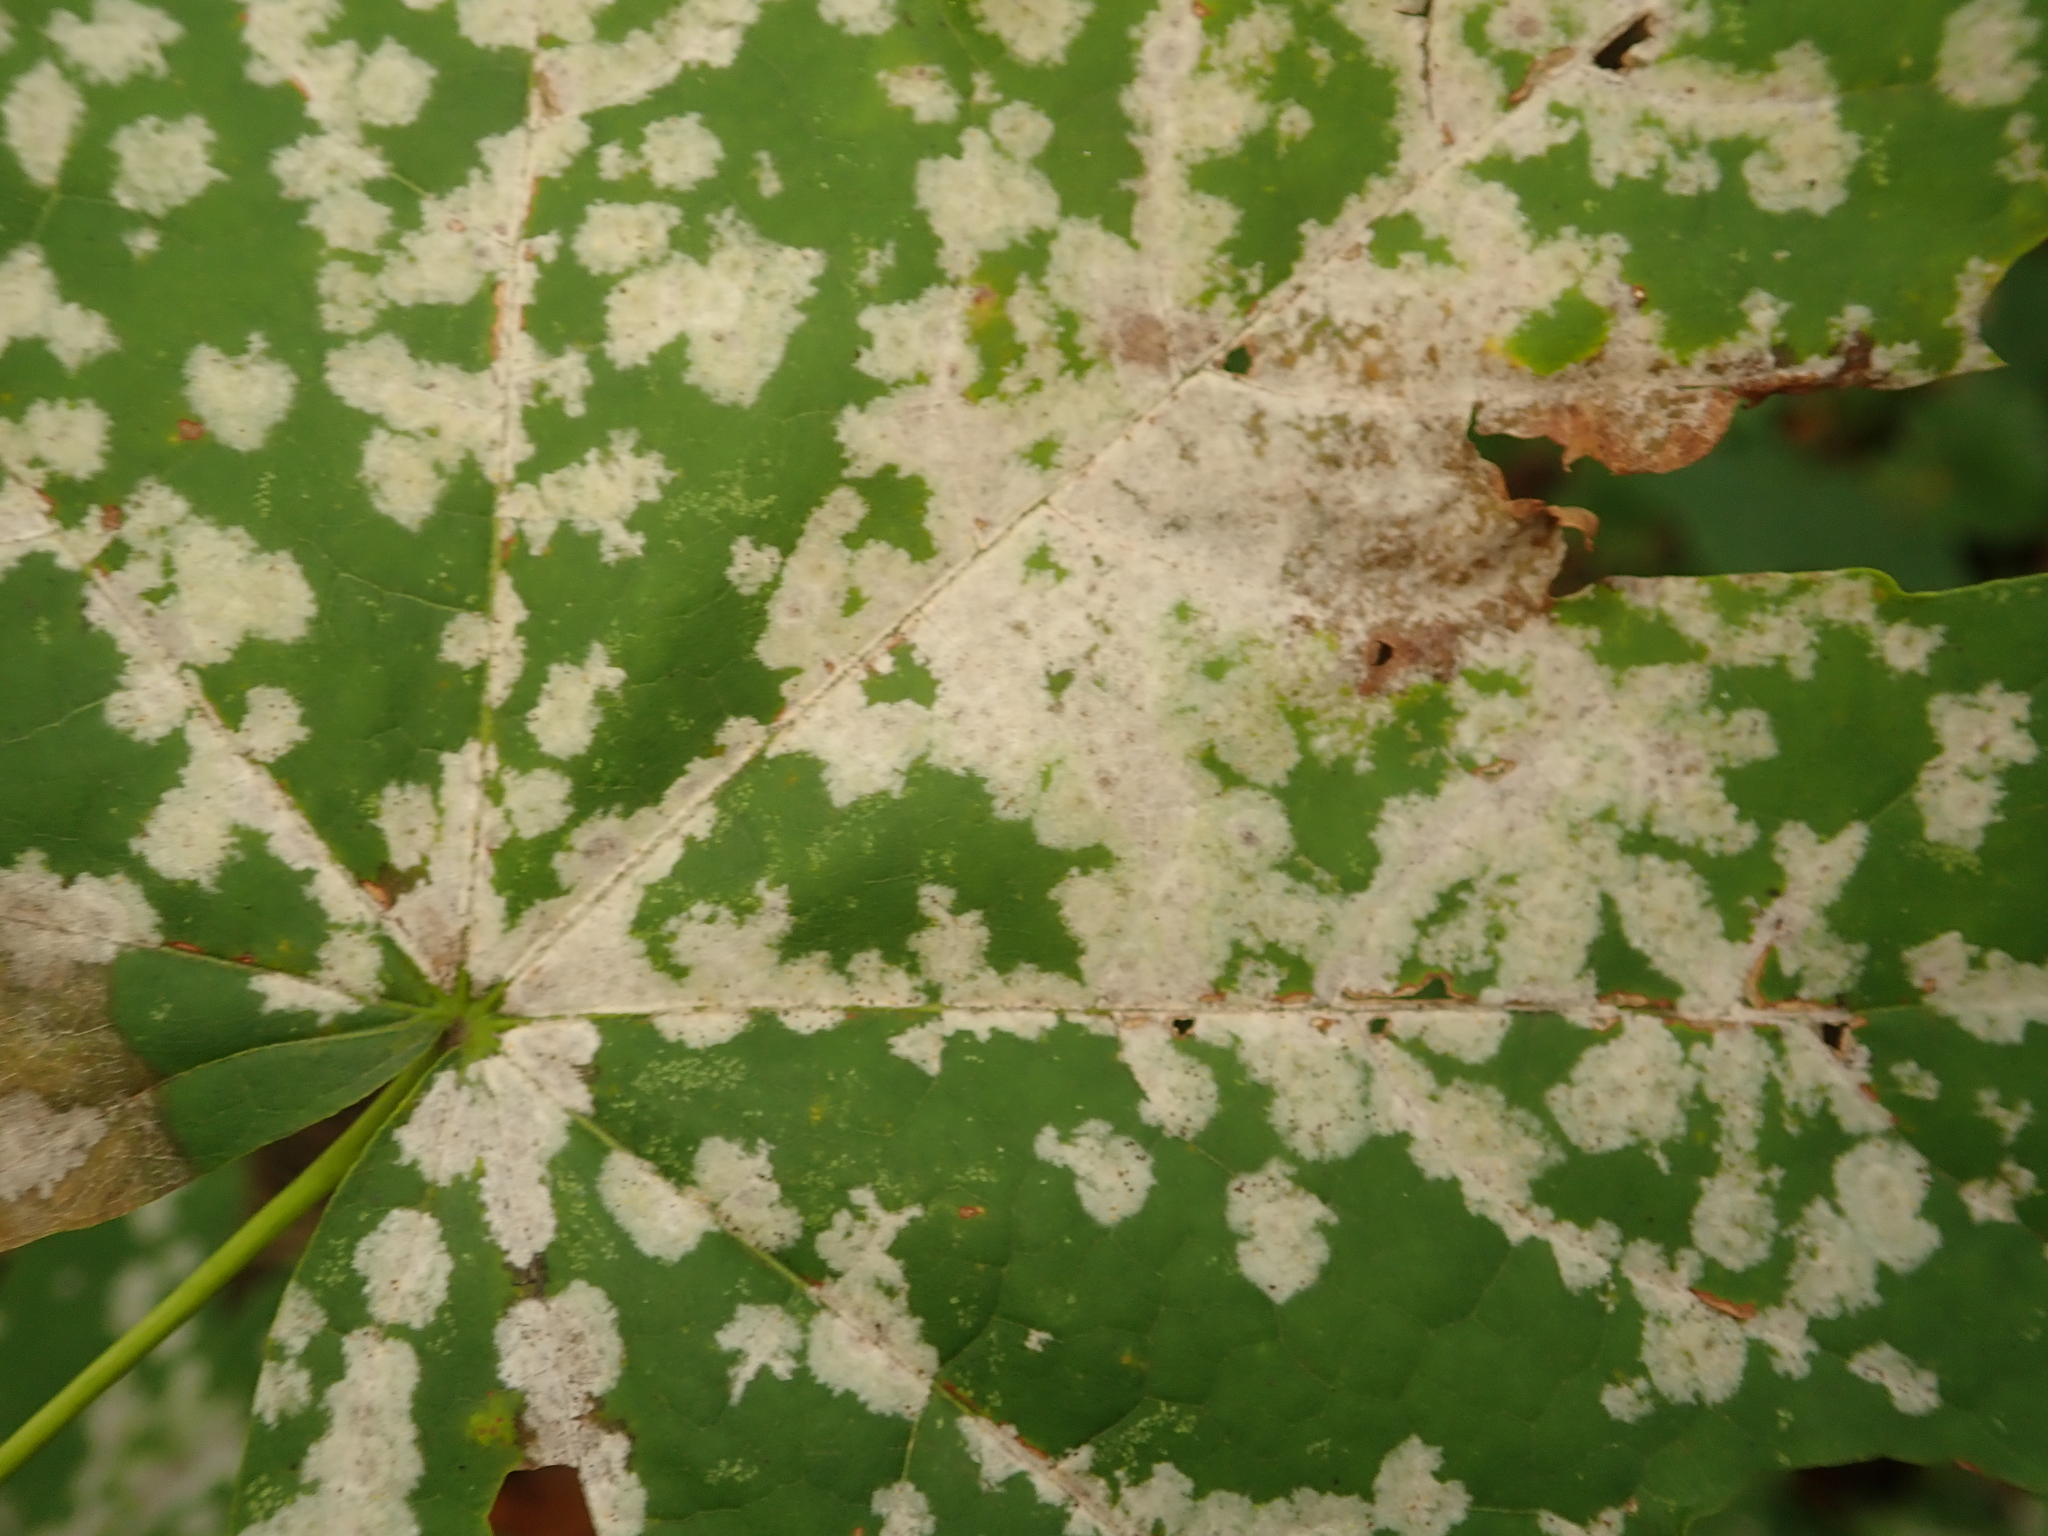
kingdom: Fungi
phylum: Ascomycota
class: Leotiomycetes
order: Helotiales
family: Erysiphaceae
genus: Sawadaea
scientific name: Sawadaea tulasnei
